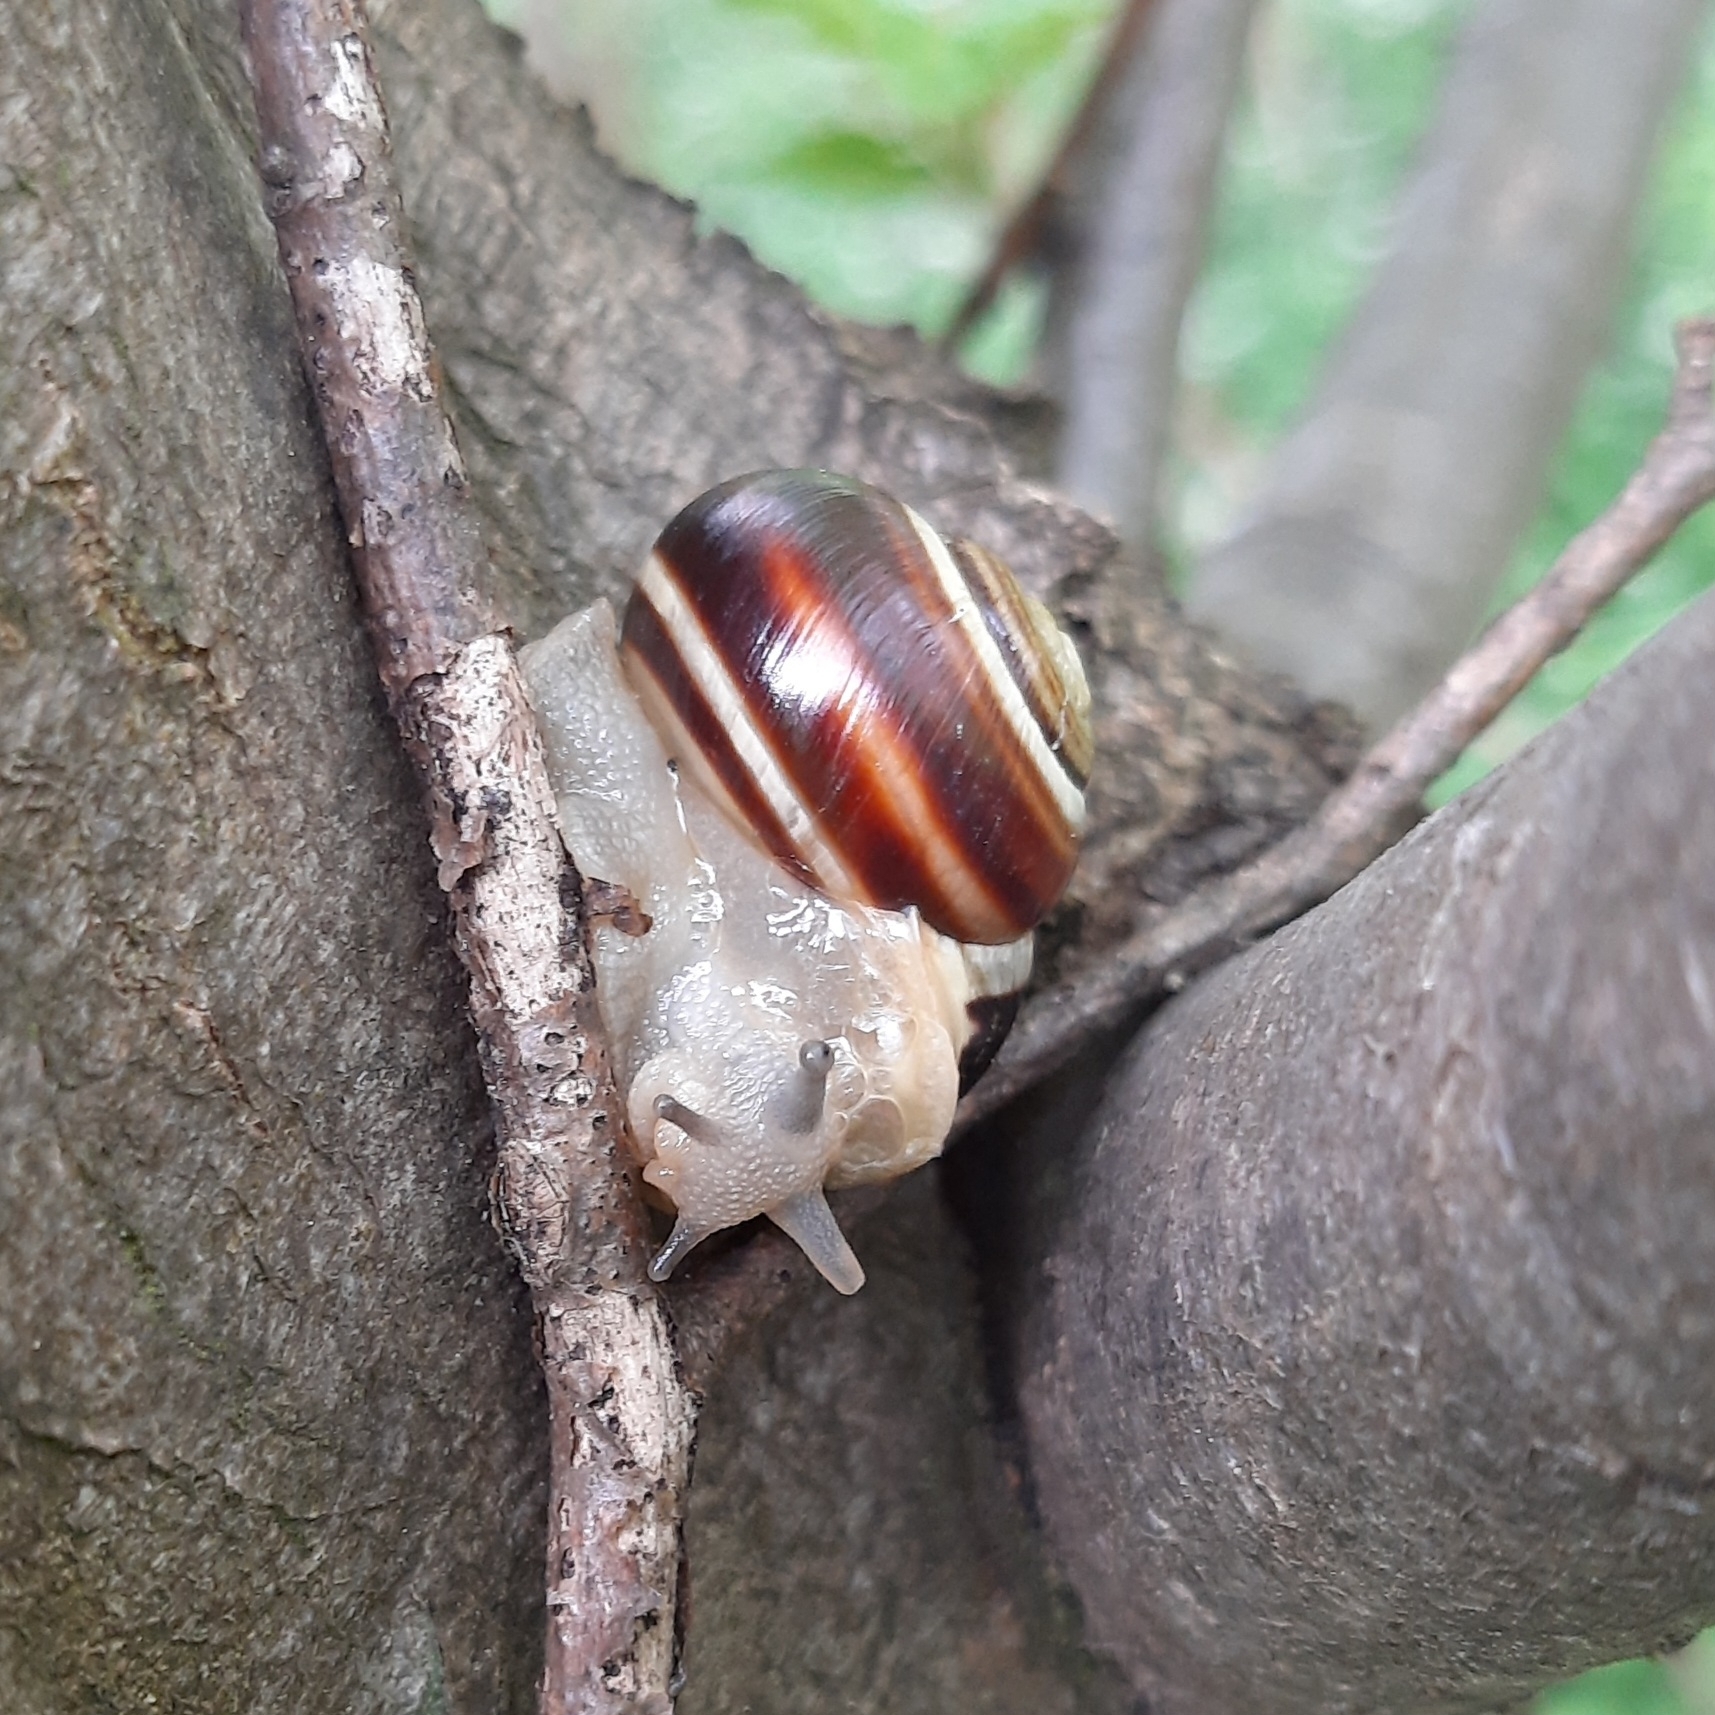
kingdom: Animalia
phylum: Mollusca
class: Gastropoda
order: Stylommatophora
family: Helicidae
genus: Cepaea
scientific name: Cepaea hortensis
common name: White-lip gardensnail
